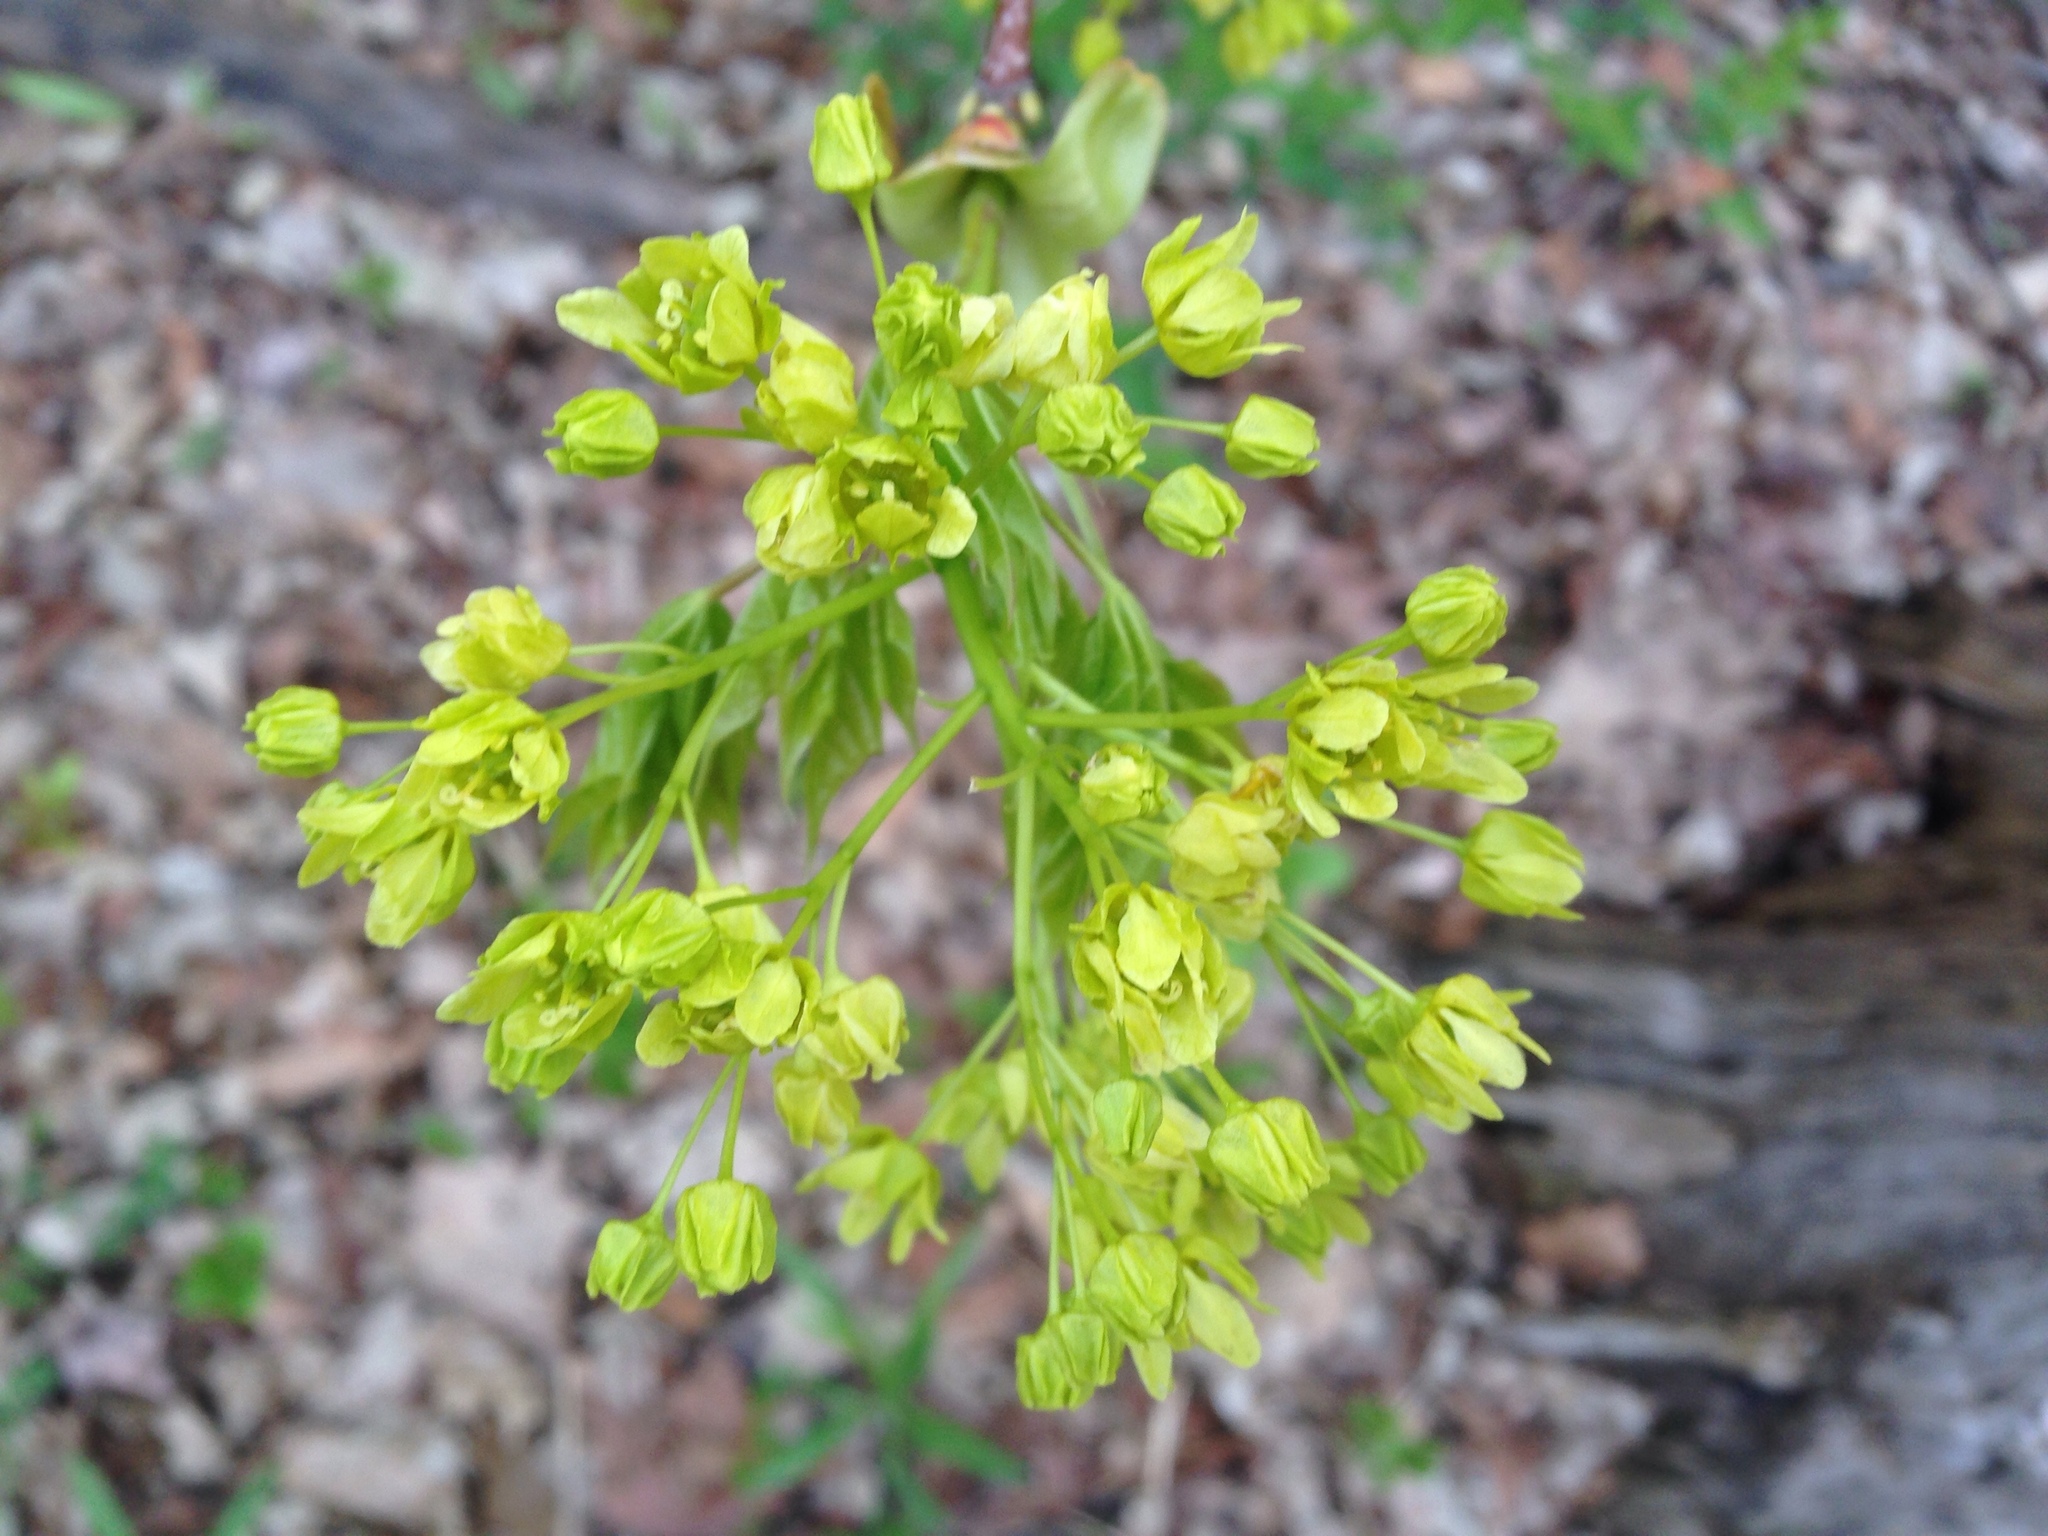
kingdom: Plantae
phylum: Tracheophyta
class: Magnoliopsida
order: Sapindales
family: Sapindaceae
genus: Acer
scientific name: Acer platanoides
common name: Norway maple
